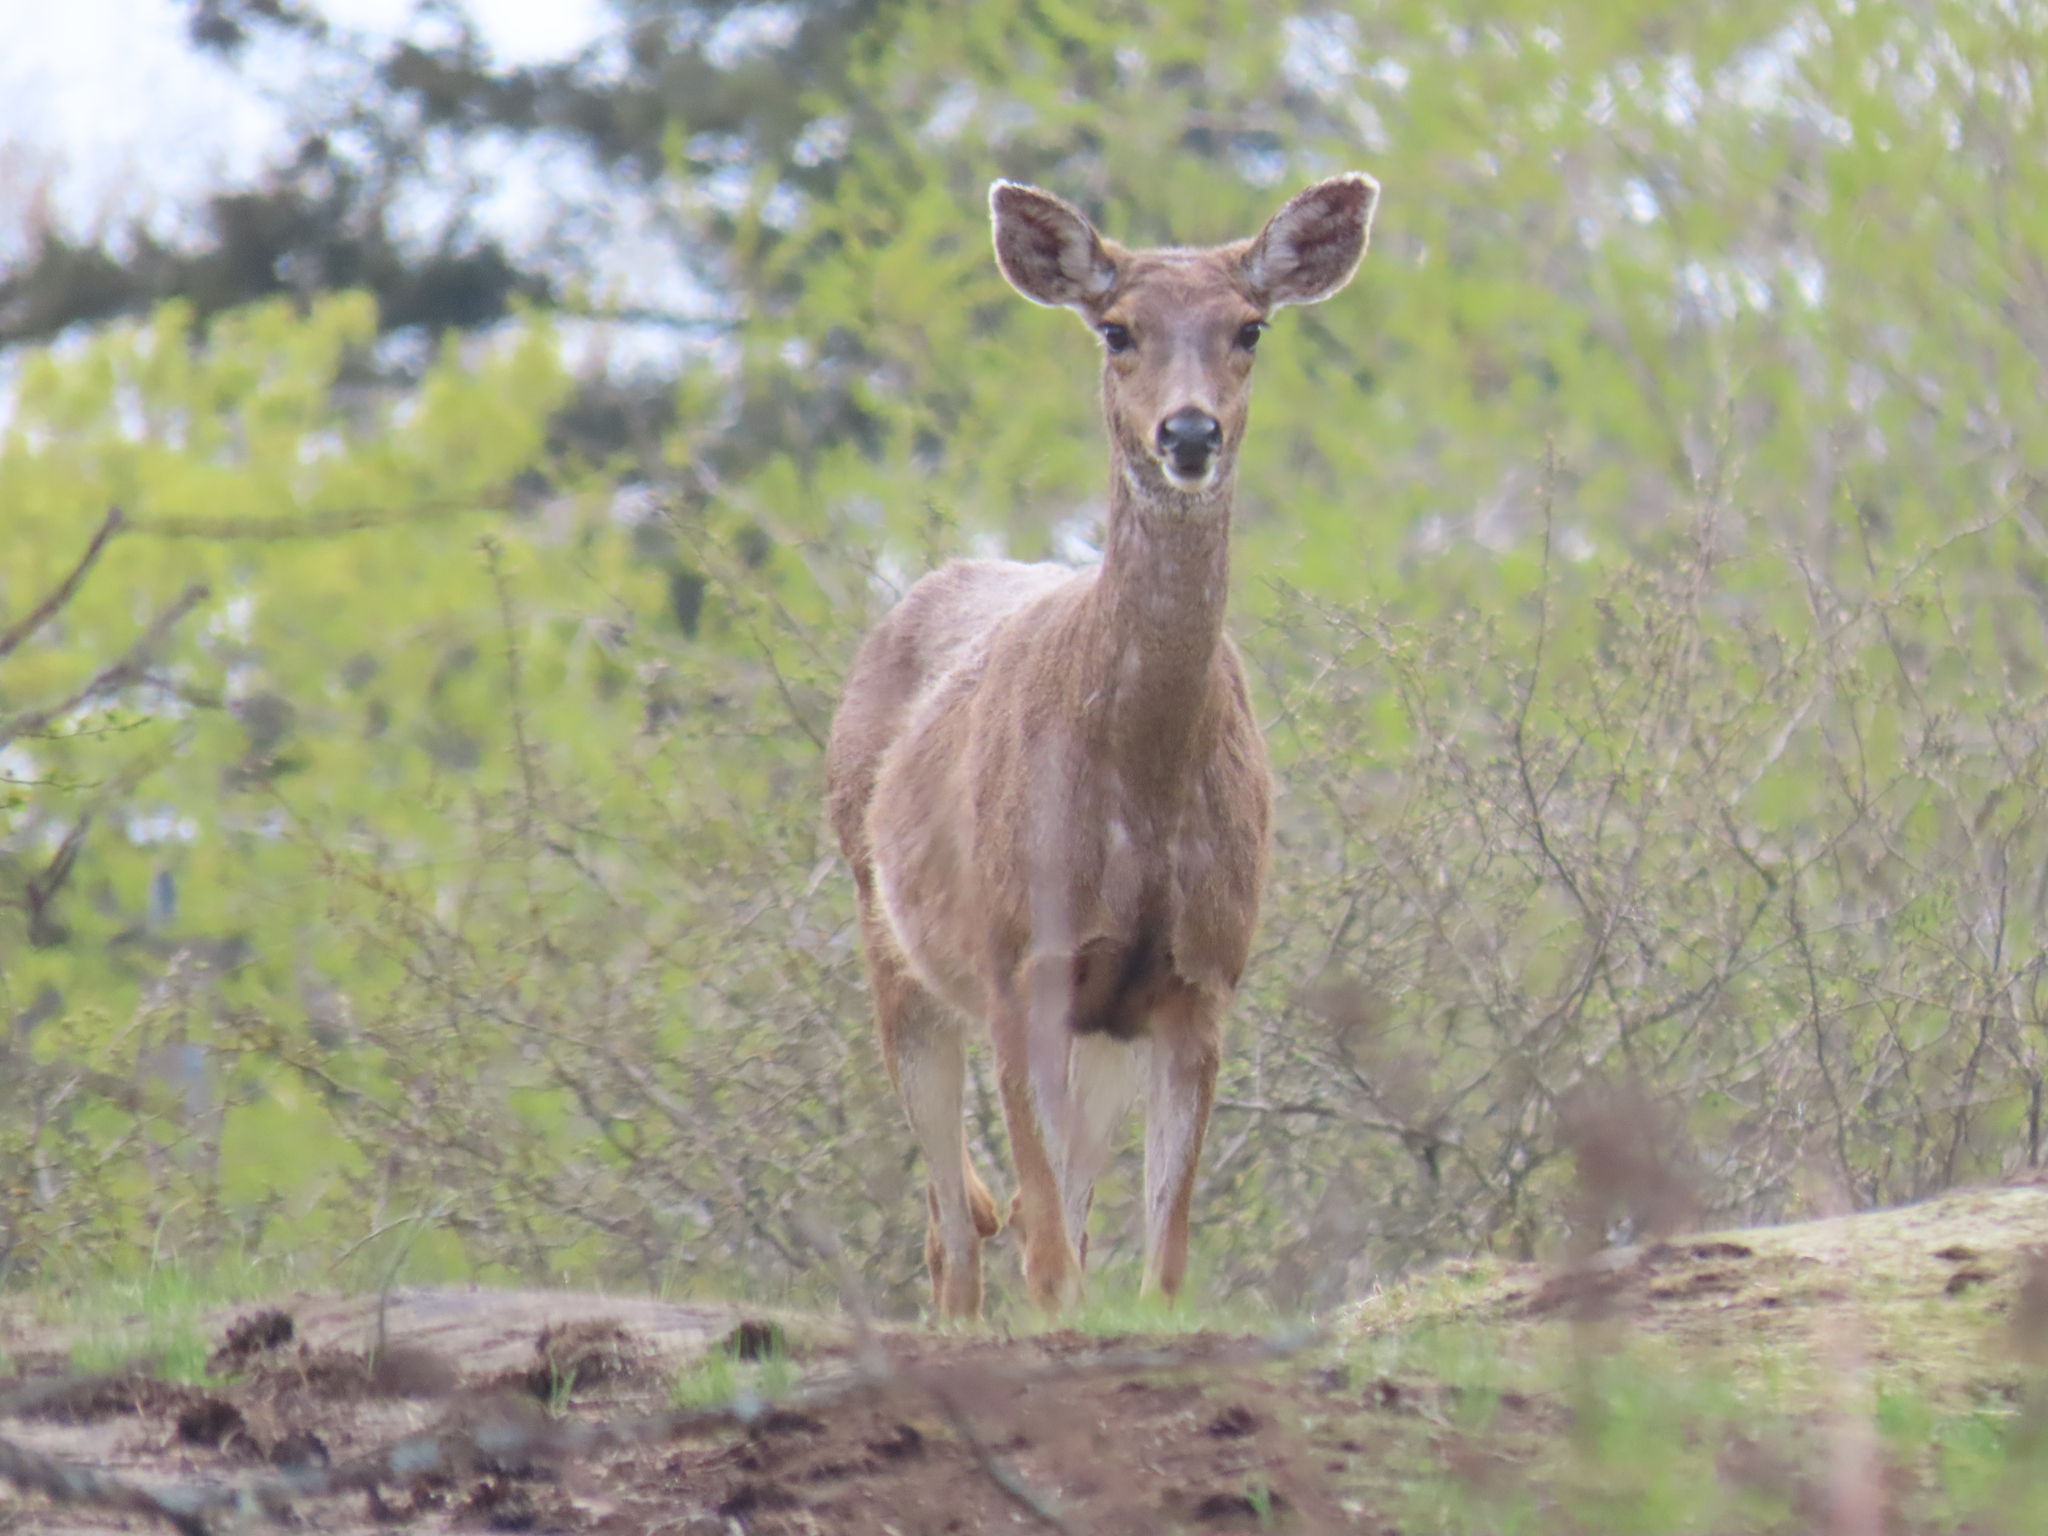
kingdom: Animalia
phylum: Chordata
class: Mammalia
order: Artiodactyla
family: Cervidae
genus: Odocoileus
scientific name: Odocoileus hemionus
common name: Mule deer
